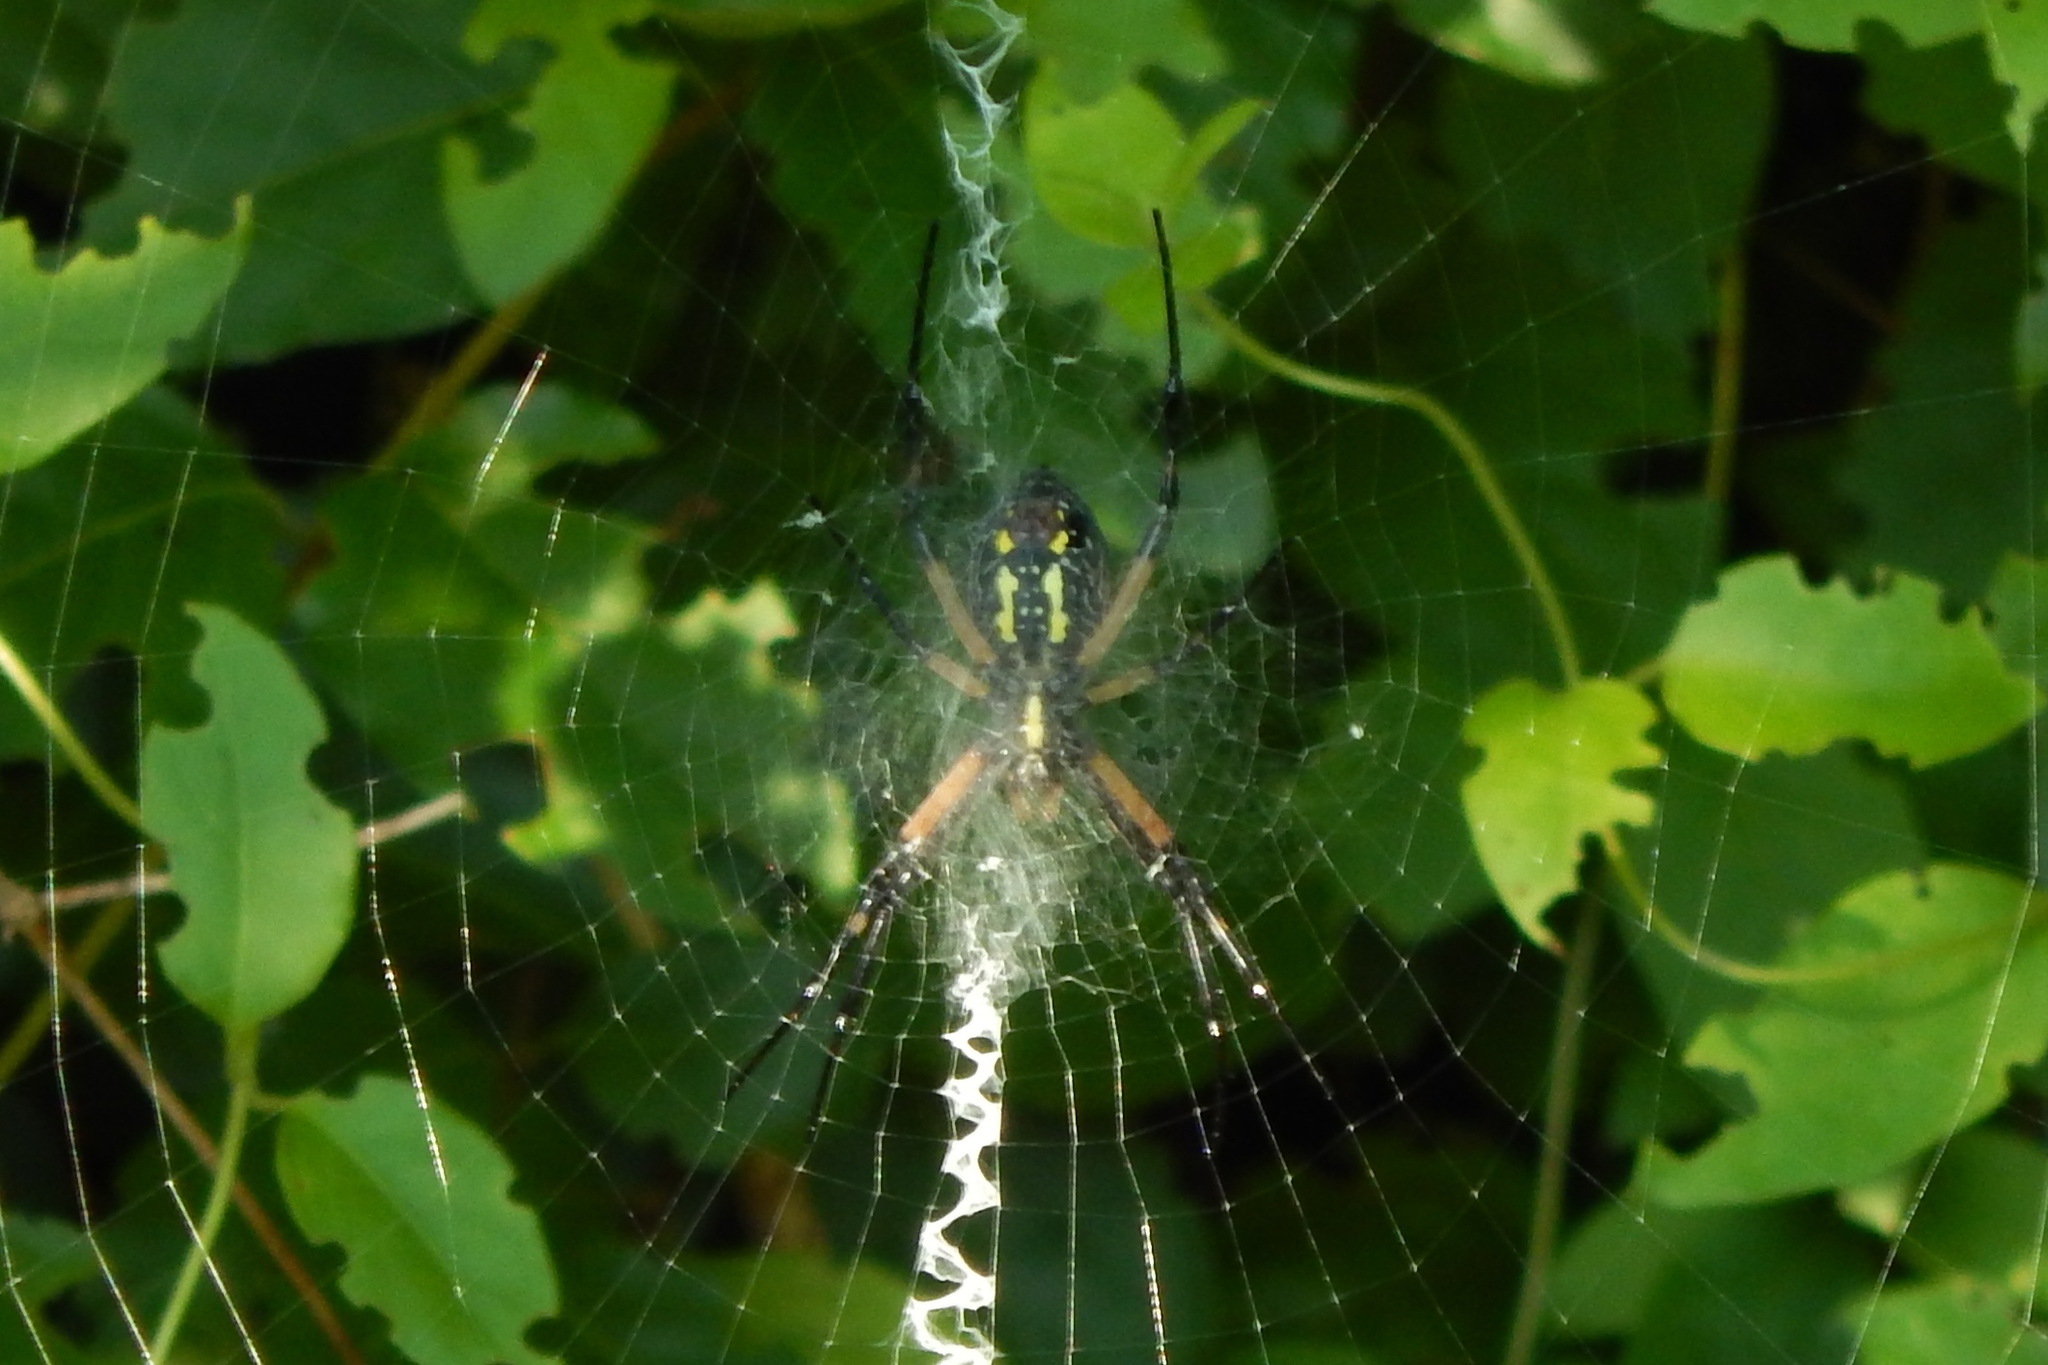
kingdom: Animalia
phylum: Arthropoda
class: Arachnida
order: Araneae
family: Araneidae
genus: Argiope
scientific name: Argiope aurantia
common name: Orb weavers
